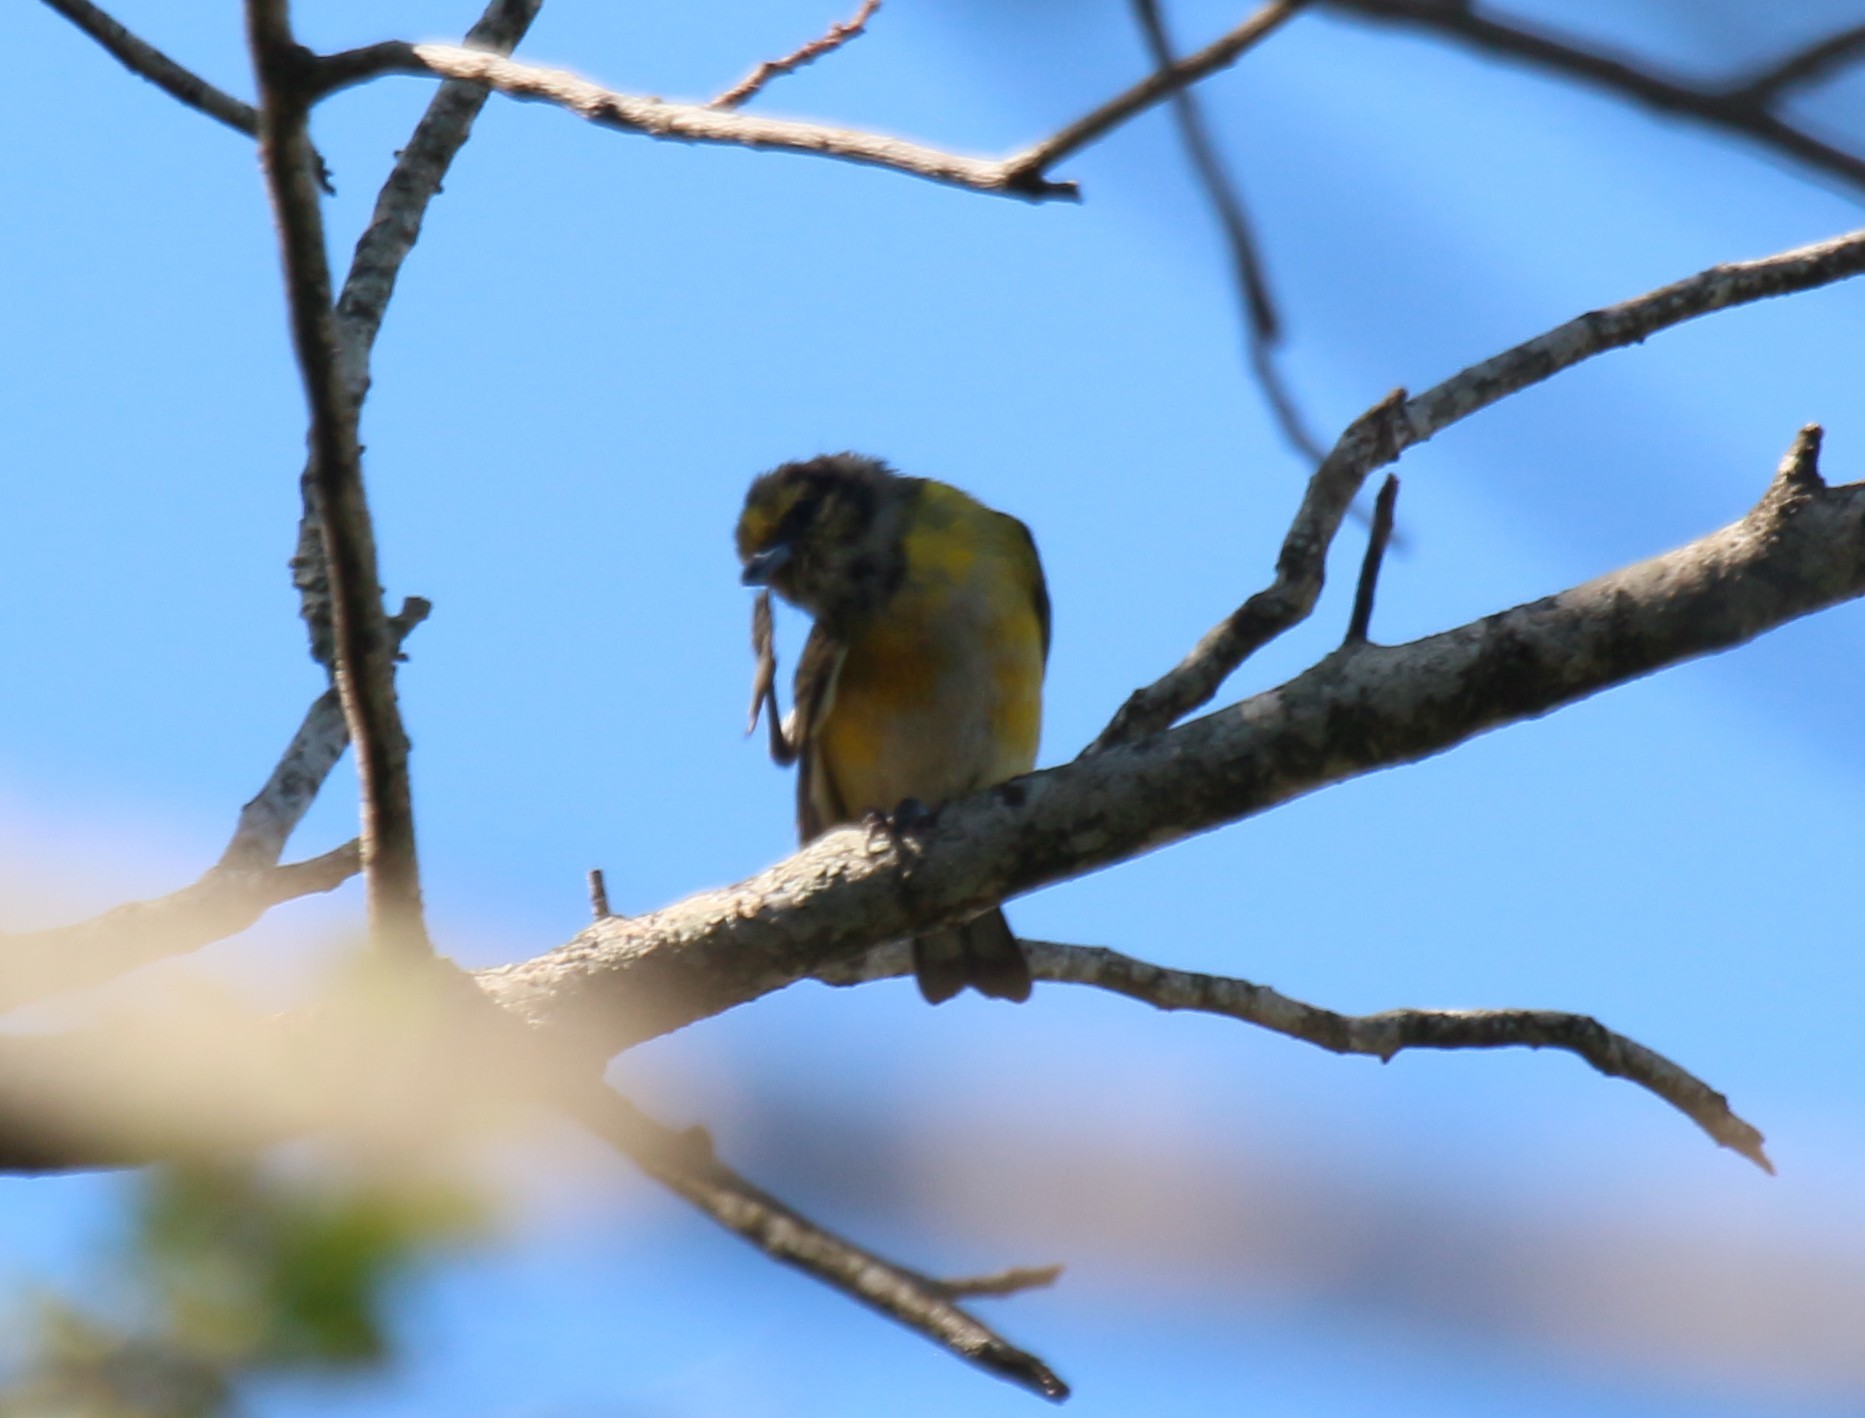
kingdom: Animalia
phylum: Chordata
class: Aves
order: Passeriformes
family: Fringillidae
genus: Euphonia
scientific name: Euphonia chlorotica
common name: Purple-throated euphonia
